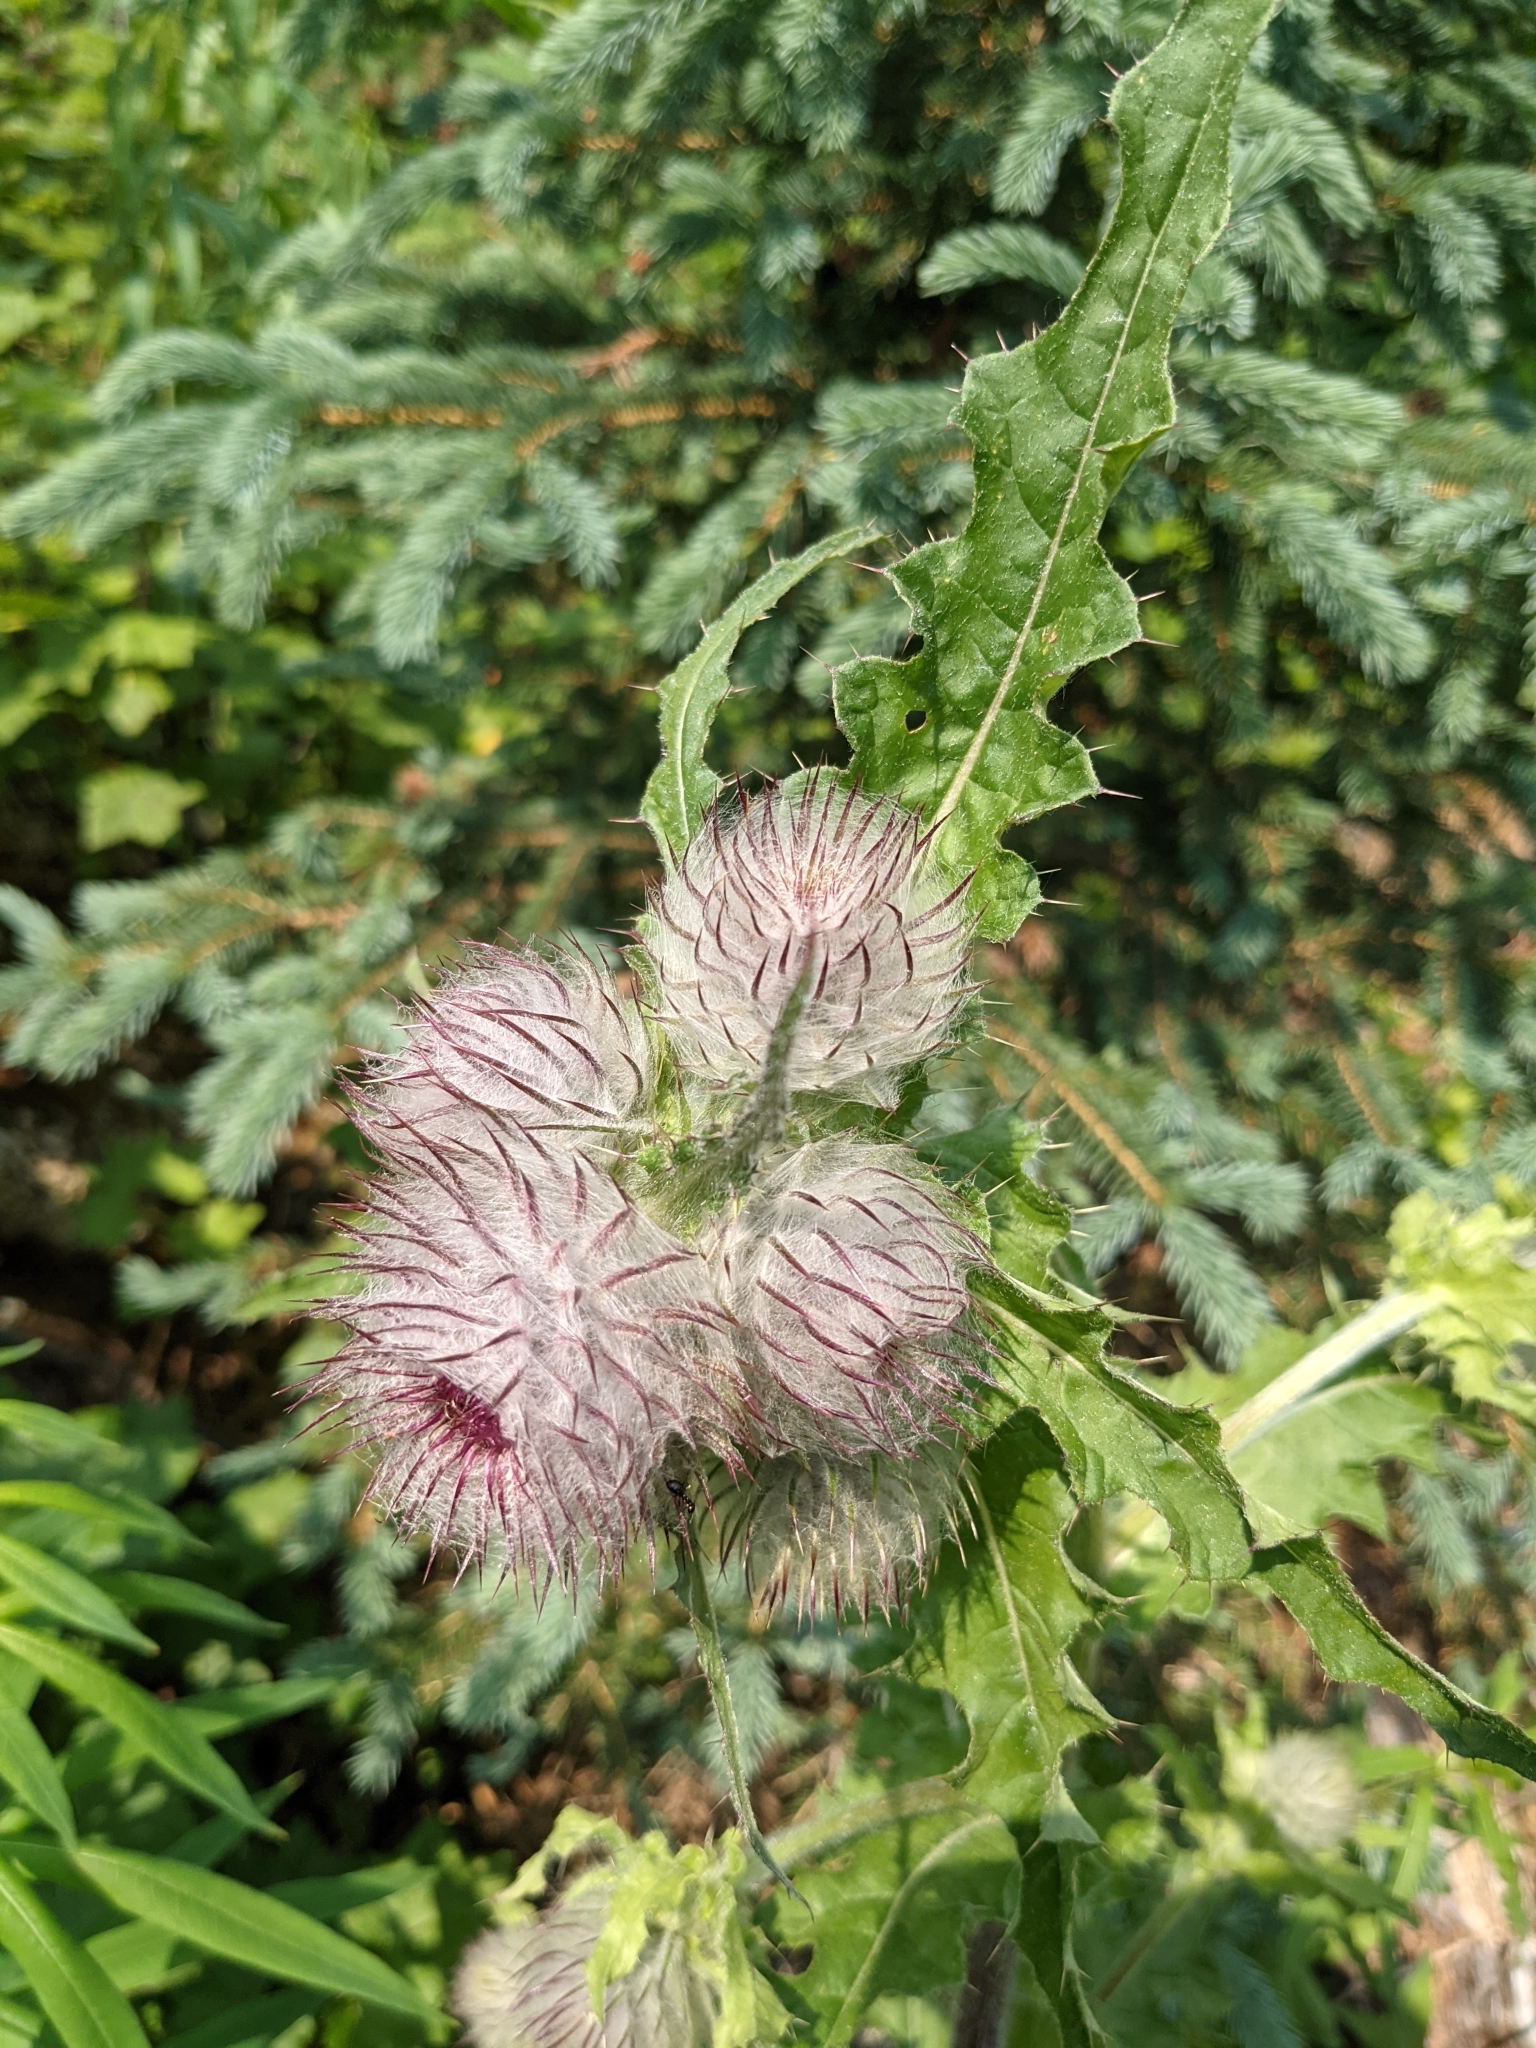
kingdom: Plantae
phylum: Tracheophyta
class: Magnoliopsida
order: Asterales
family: Asteraceae
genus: Cirsium
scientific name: Cirsium edule
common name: Indian thistle
